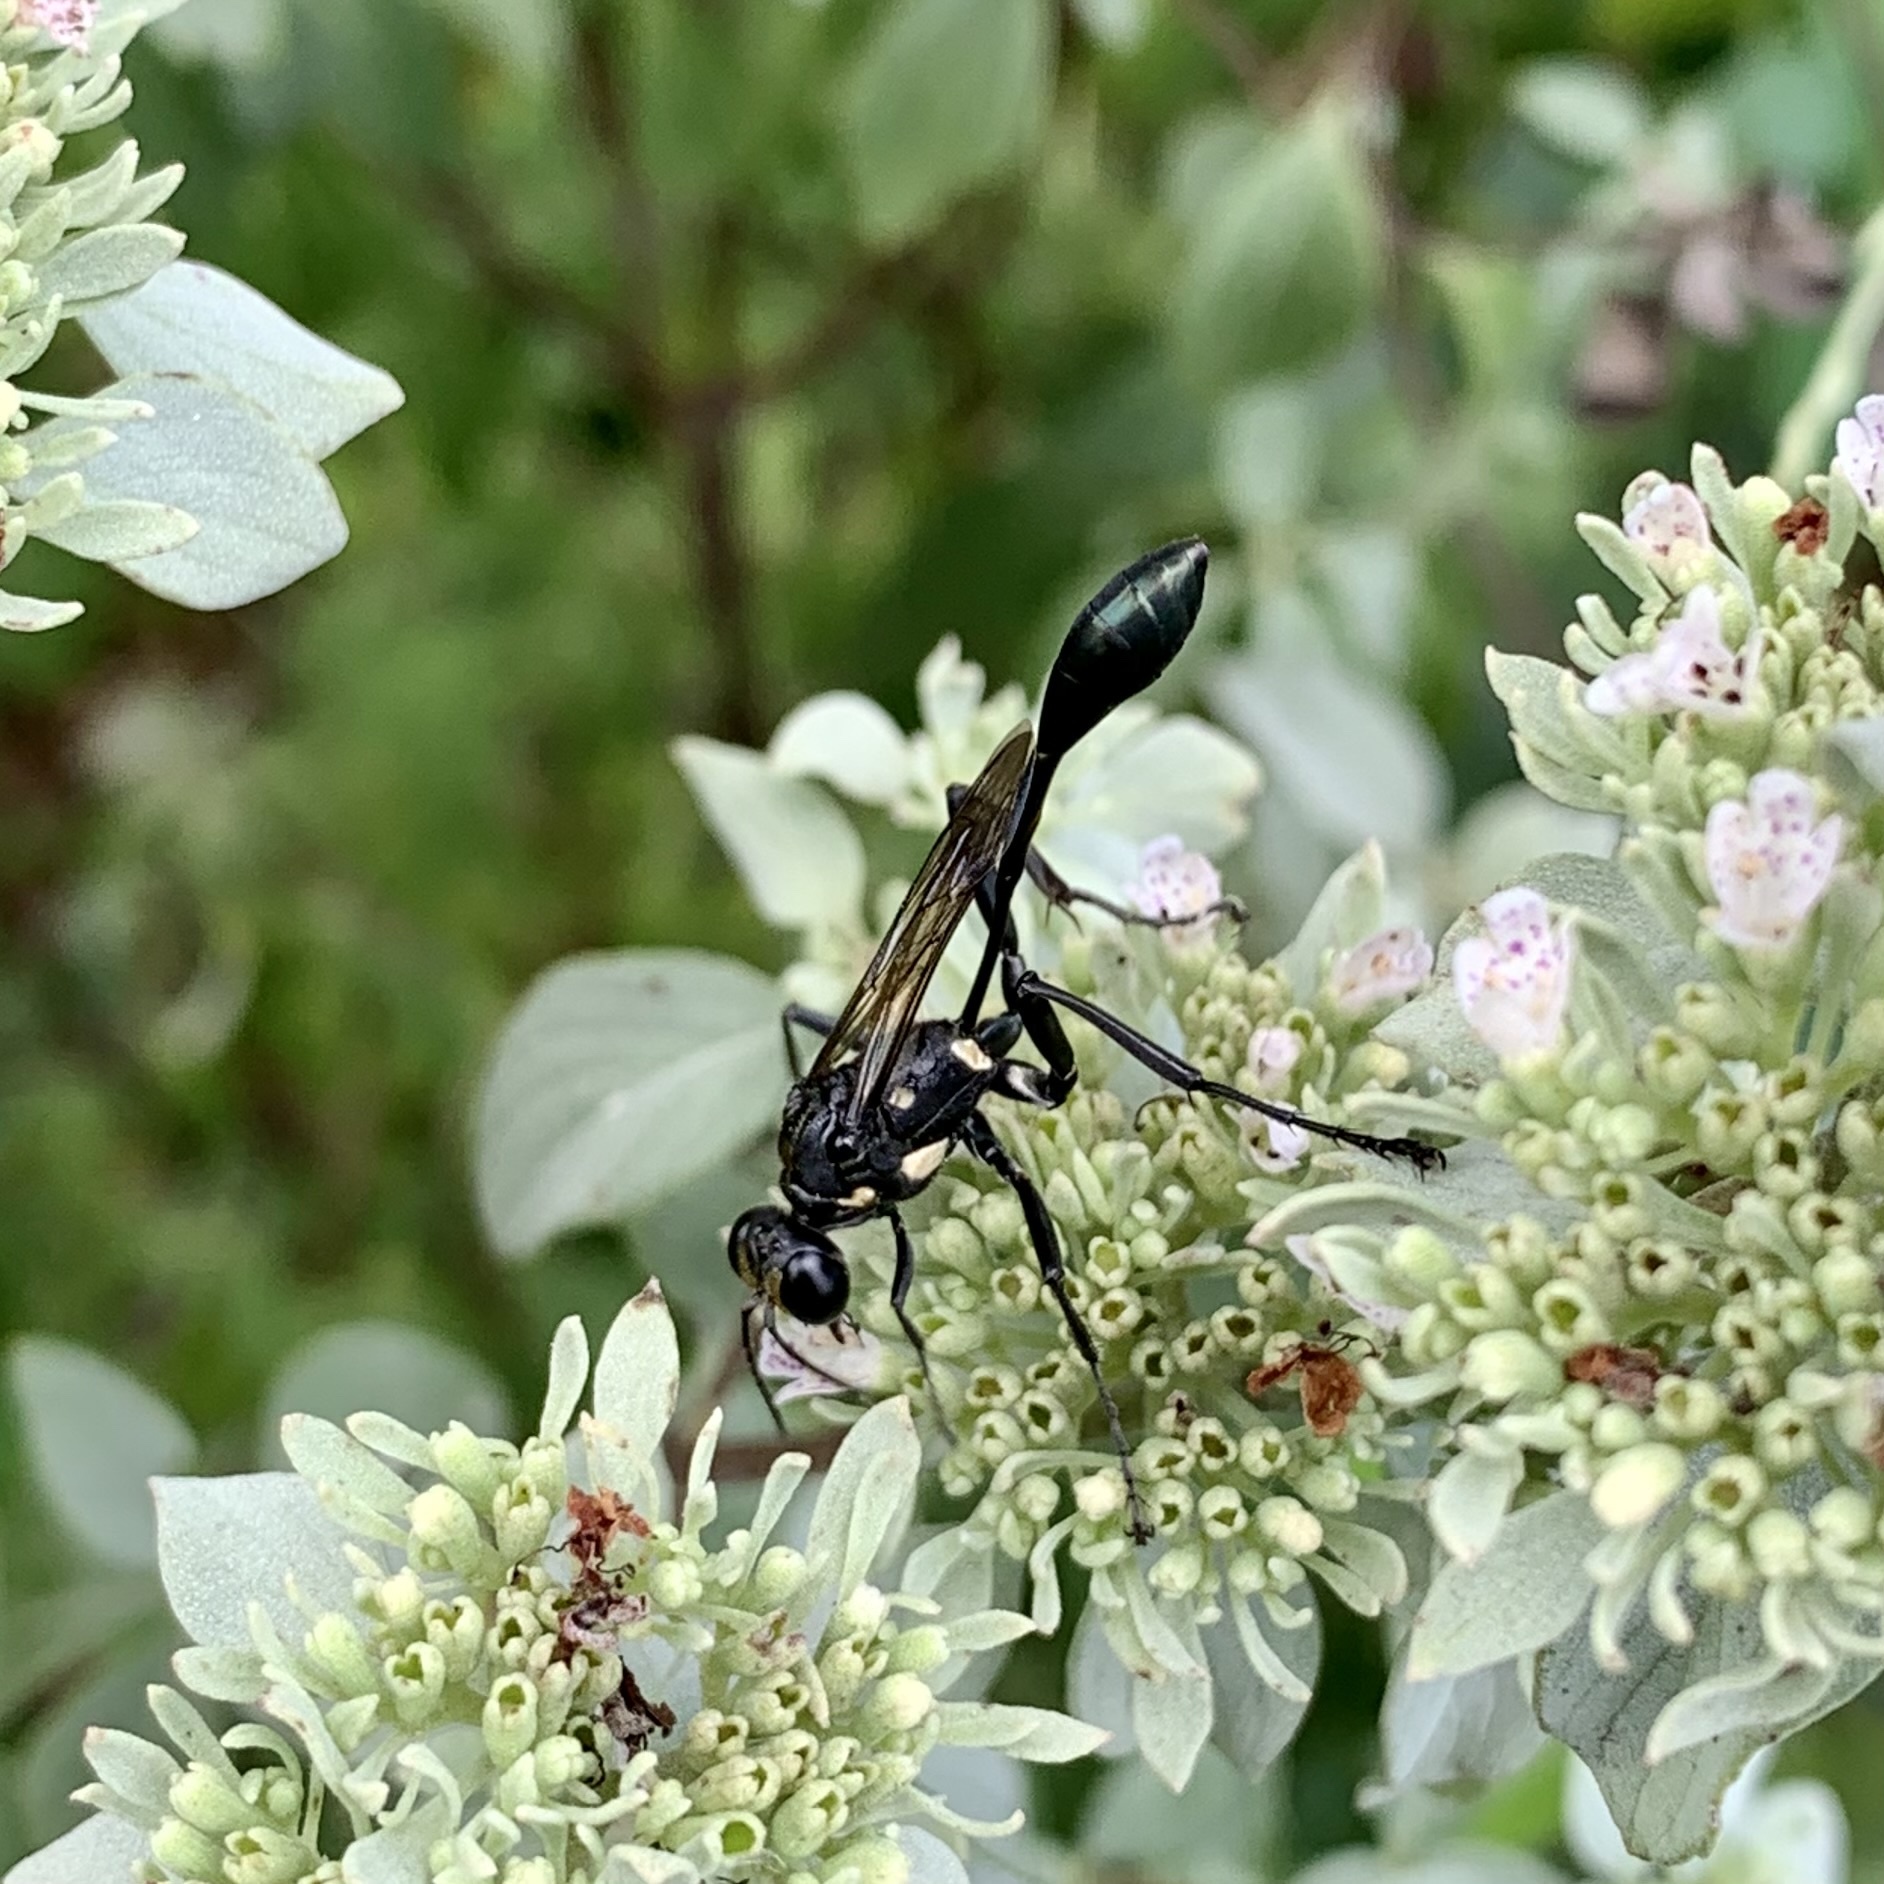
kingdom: Animalia
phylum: Arthropoda
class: Insecta
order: Hymenoptera
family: Sphecidae
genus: Eremnophila
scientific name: Eremnophila aureonotata
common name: Gold-marked thread-waisted wasp
